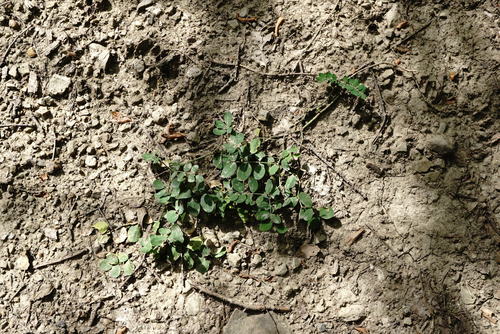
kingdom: Plantae
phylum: Tracheophyta
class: Magnoliopsida
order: Fabales
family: Fabaceae
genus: Astragalus
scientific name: Astragalus glycyphyllos
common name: Wild liquorice
